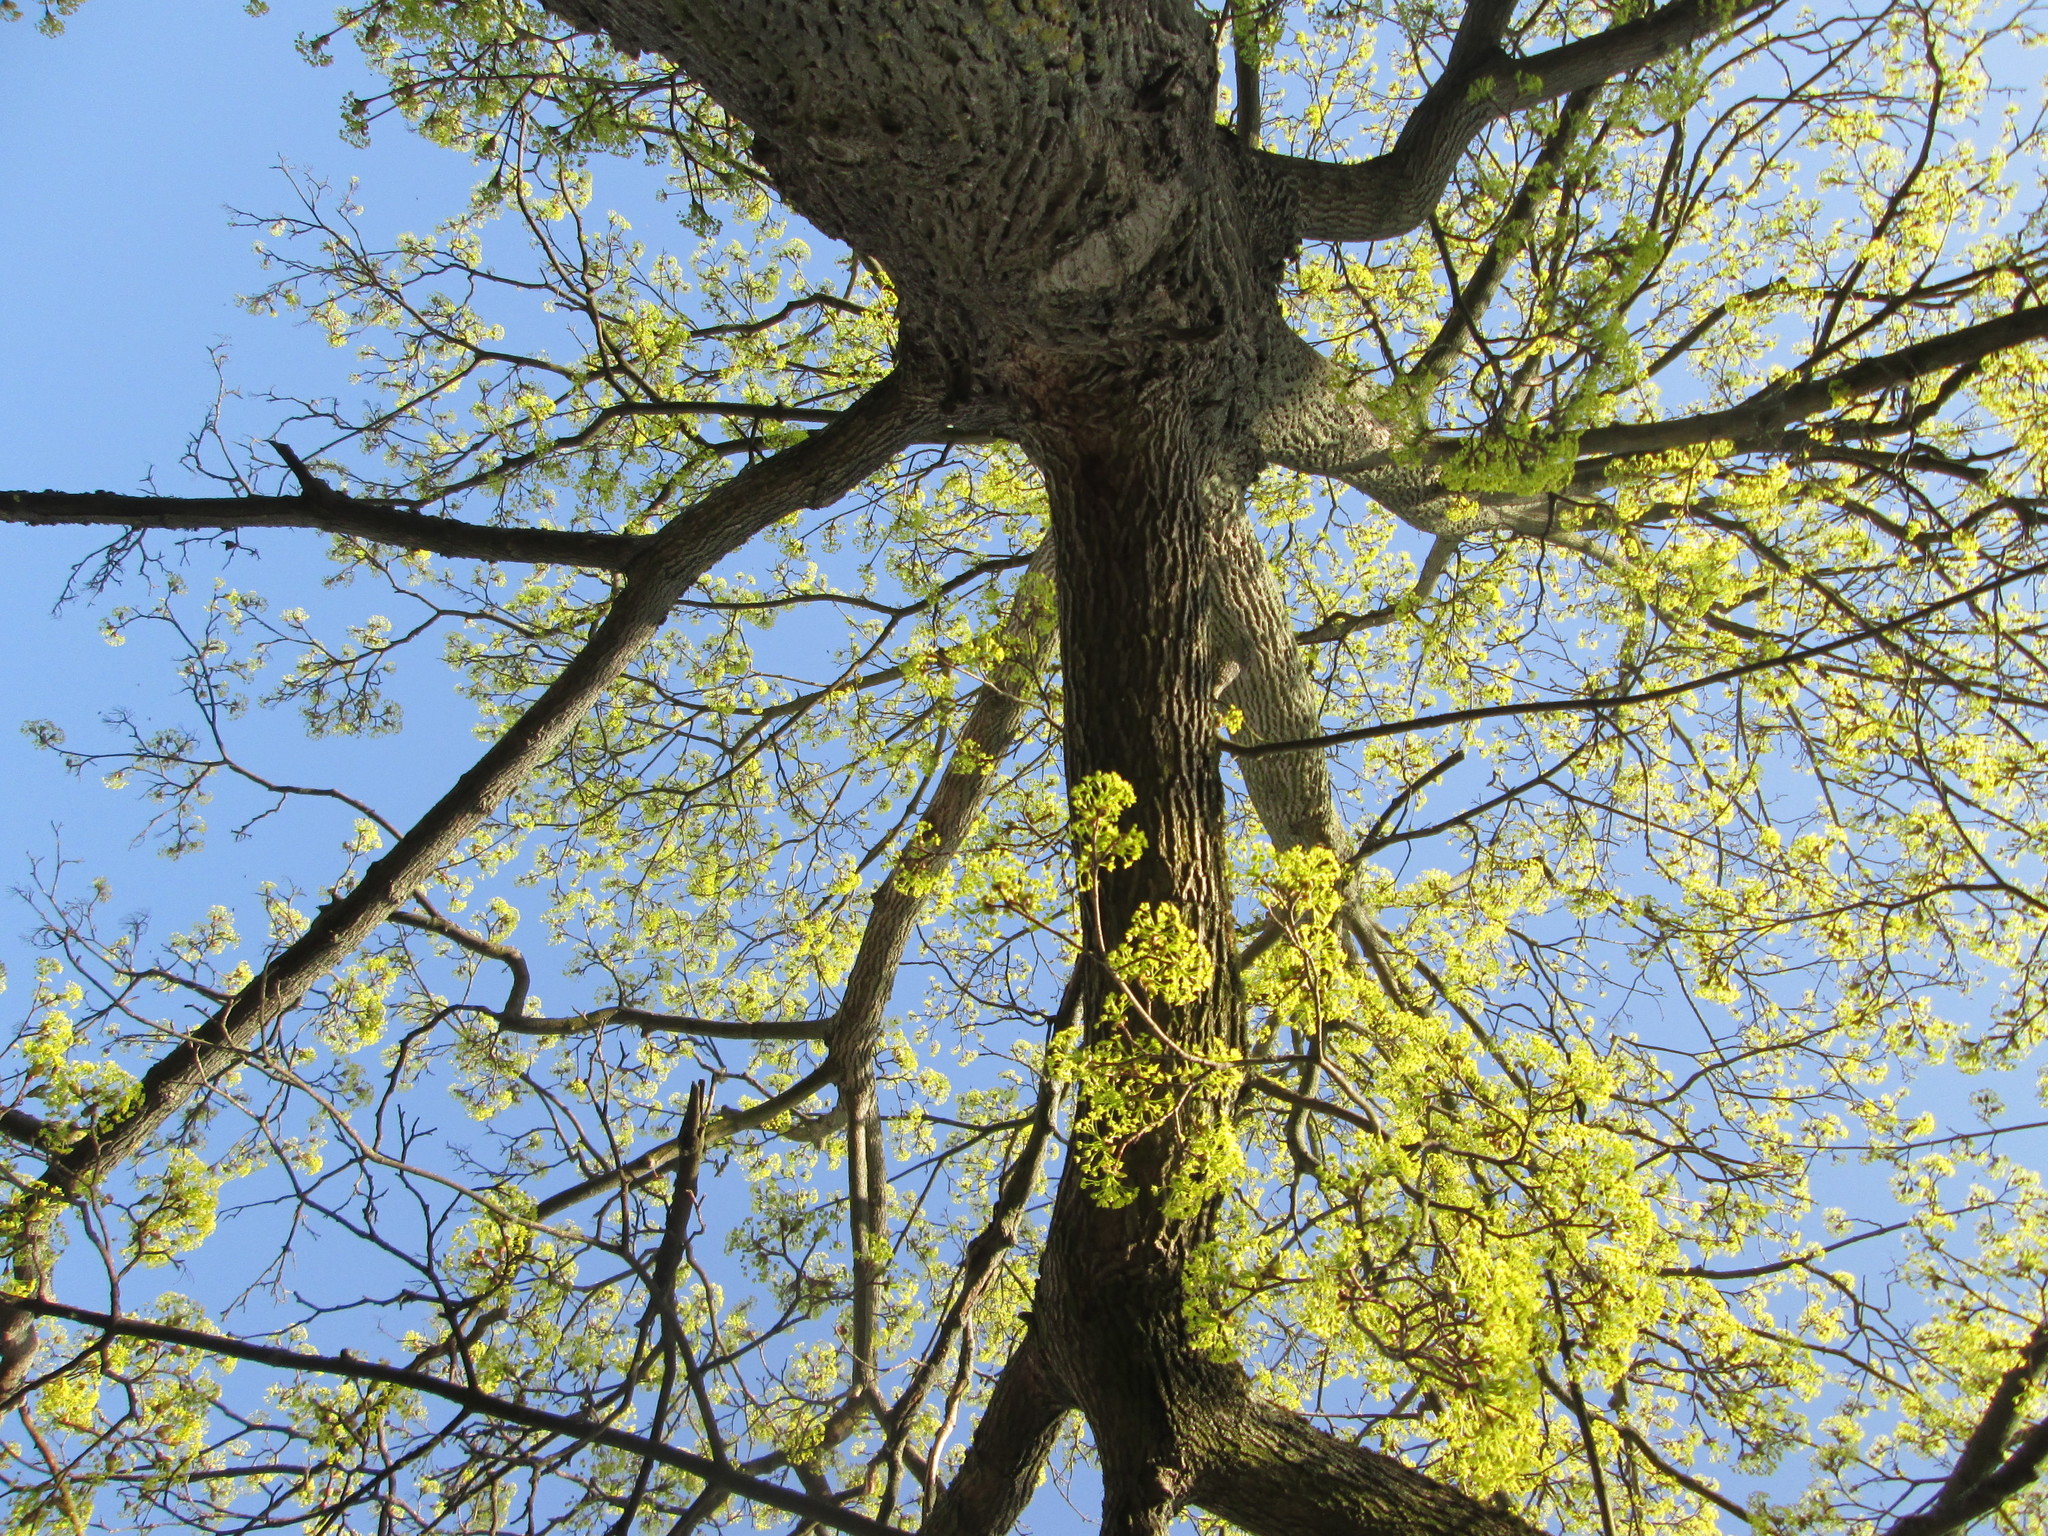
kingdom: Plantae
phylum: Tracheophyta
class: Magnoliopsida
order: Sapindales
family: Sapindaceae
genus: Acer
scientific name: Acer platanoides
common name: Norway maple
